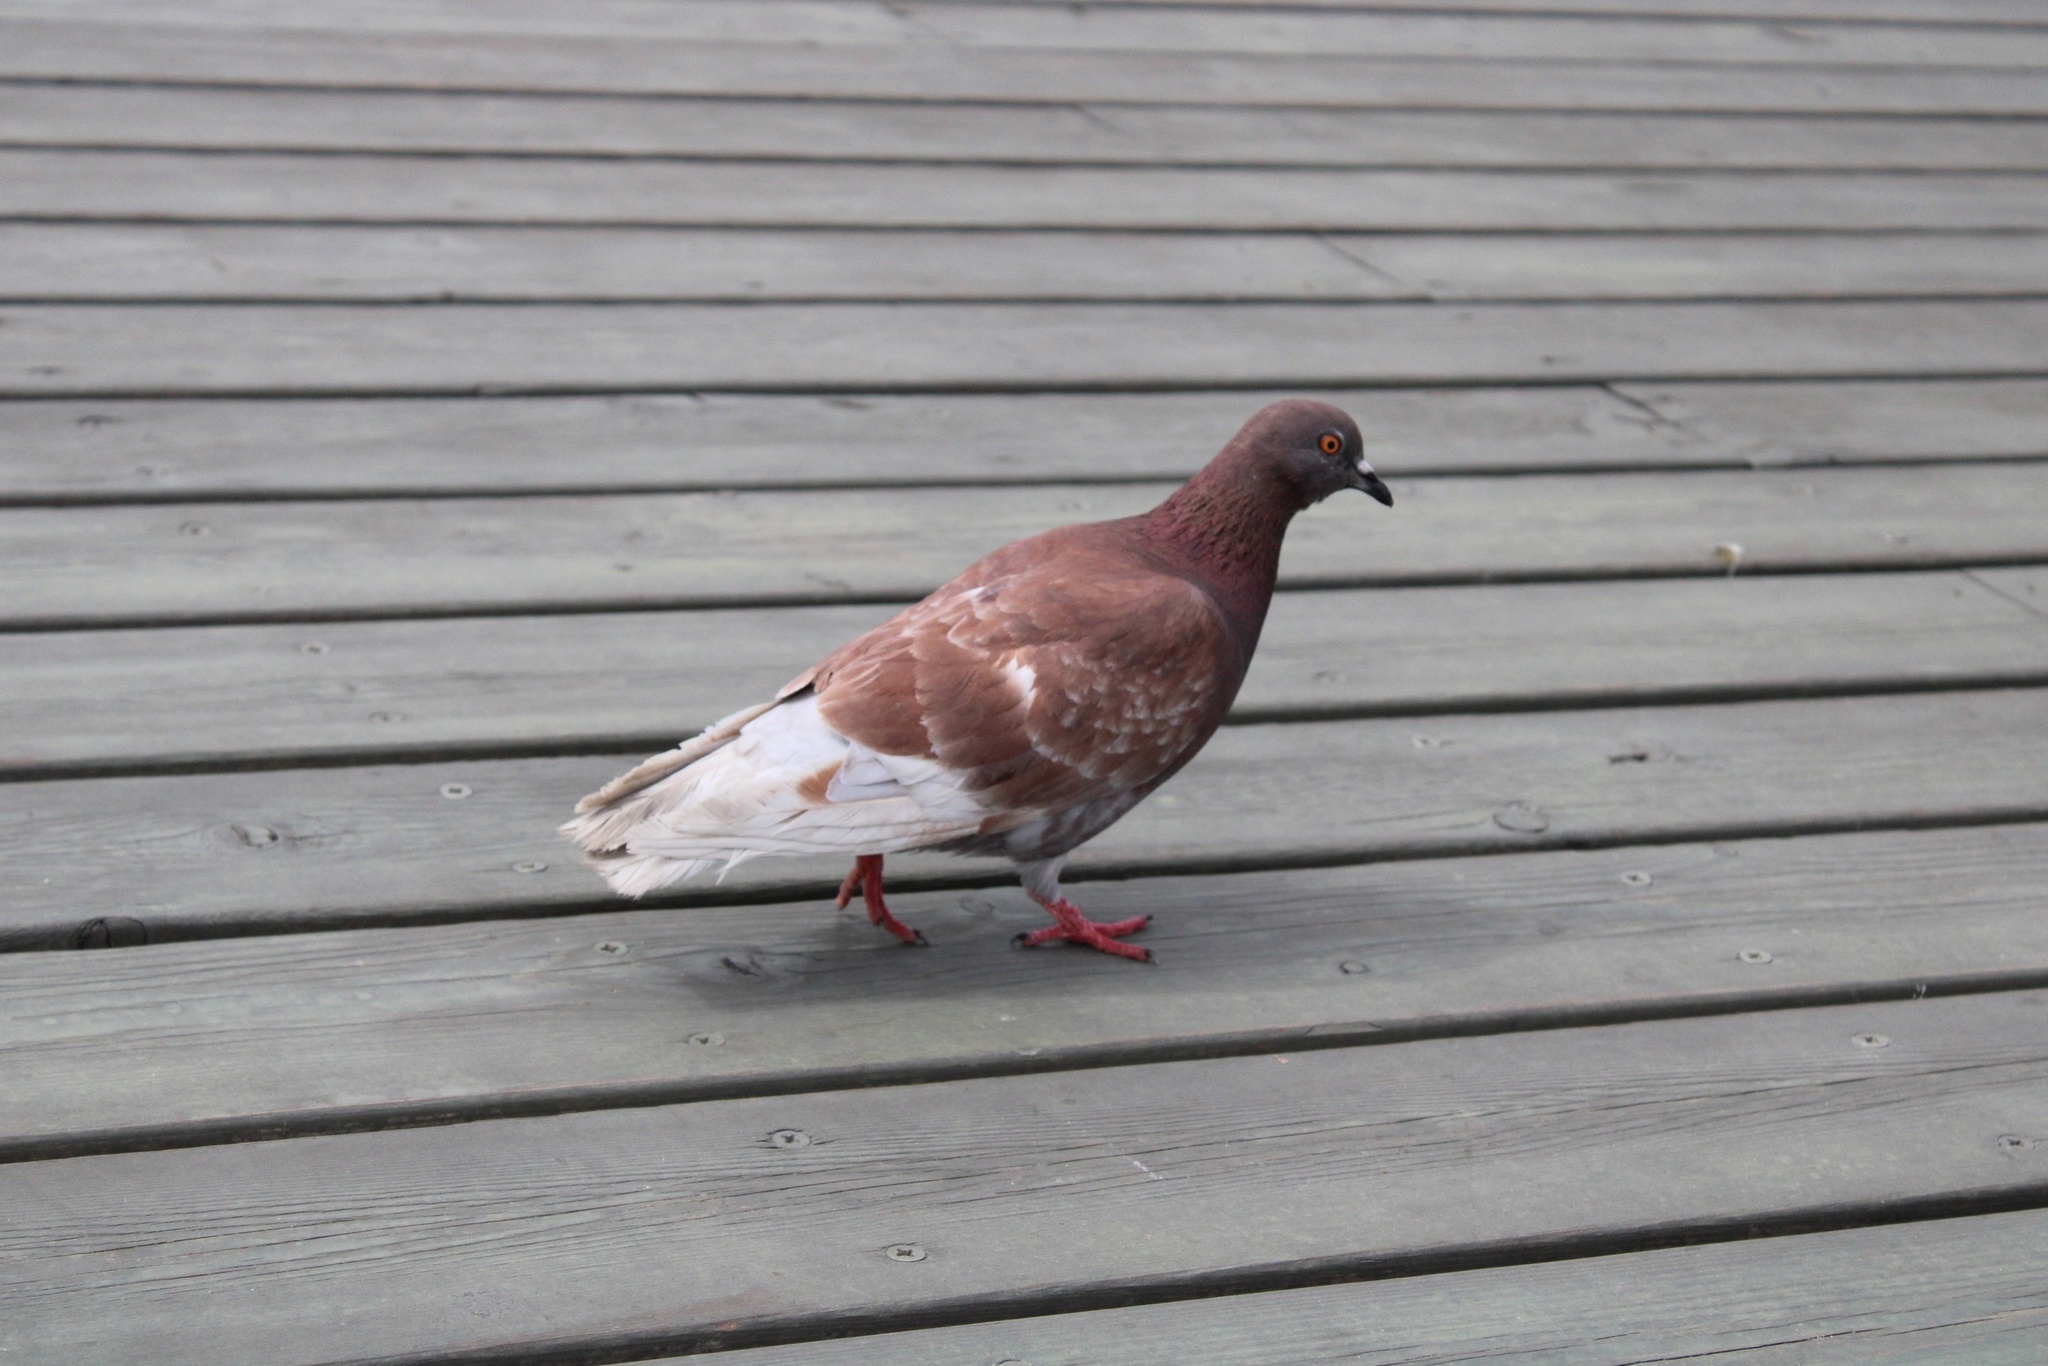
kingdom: Animalia
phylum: Chordata
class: Aves
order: Columbiformes
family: Columbidae
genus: Columba
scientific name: Columba livia
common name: Rock pigeon
